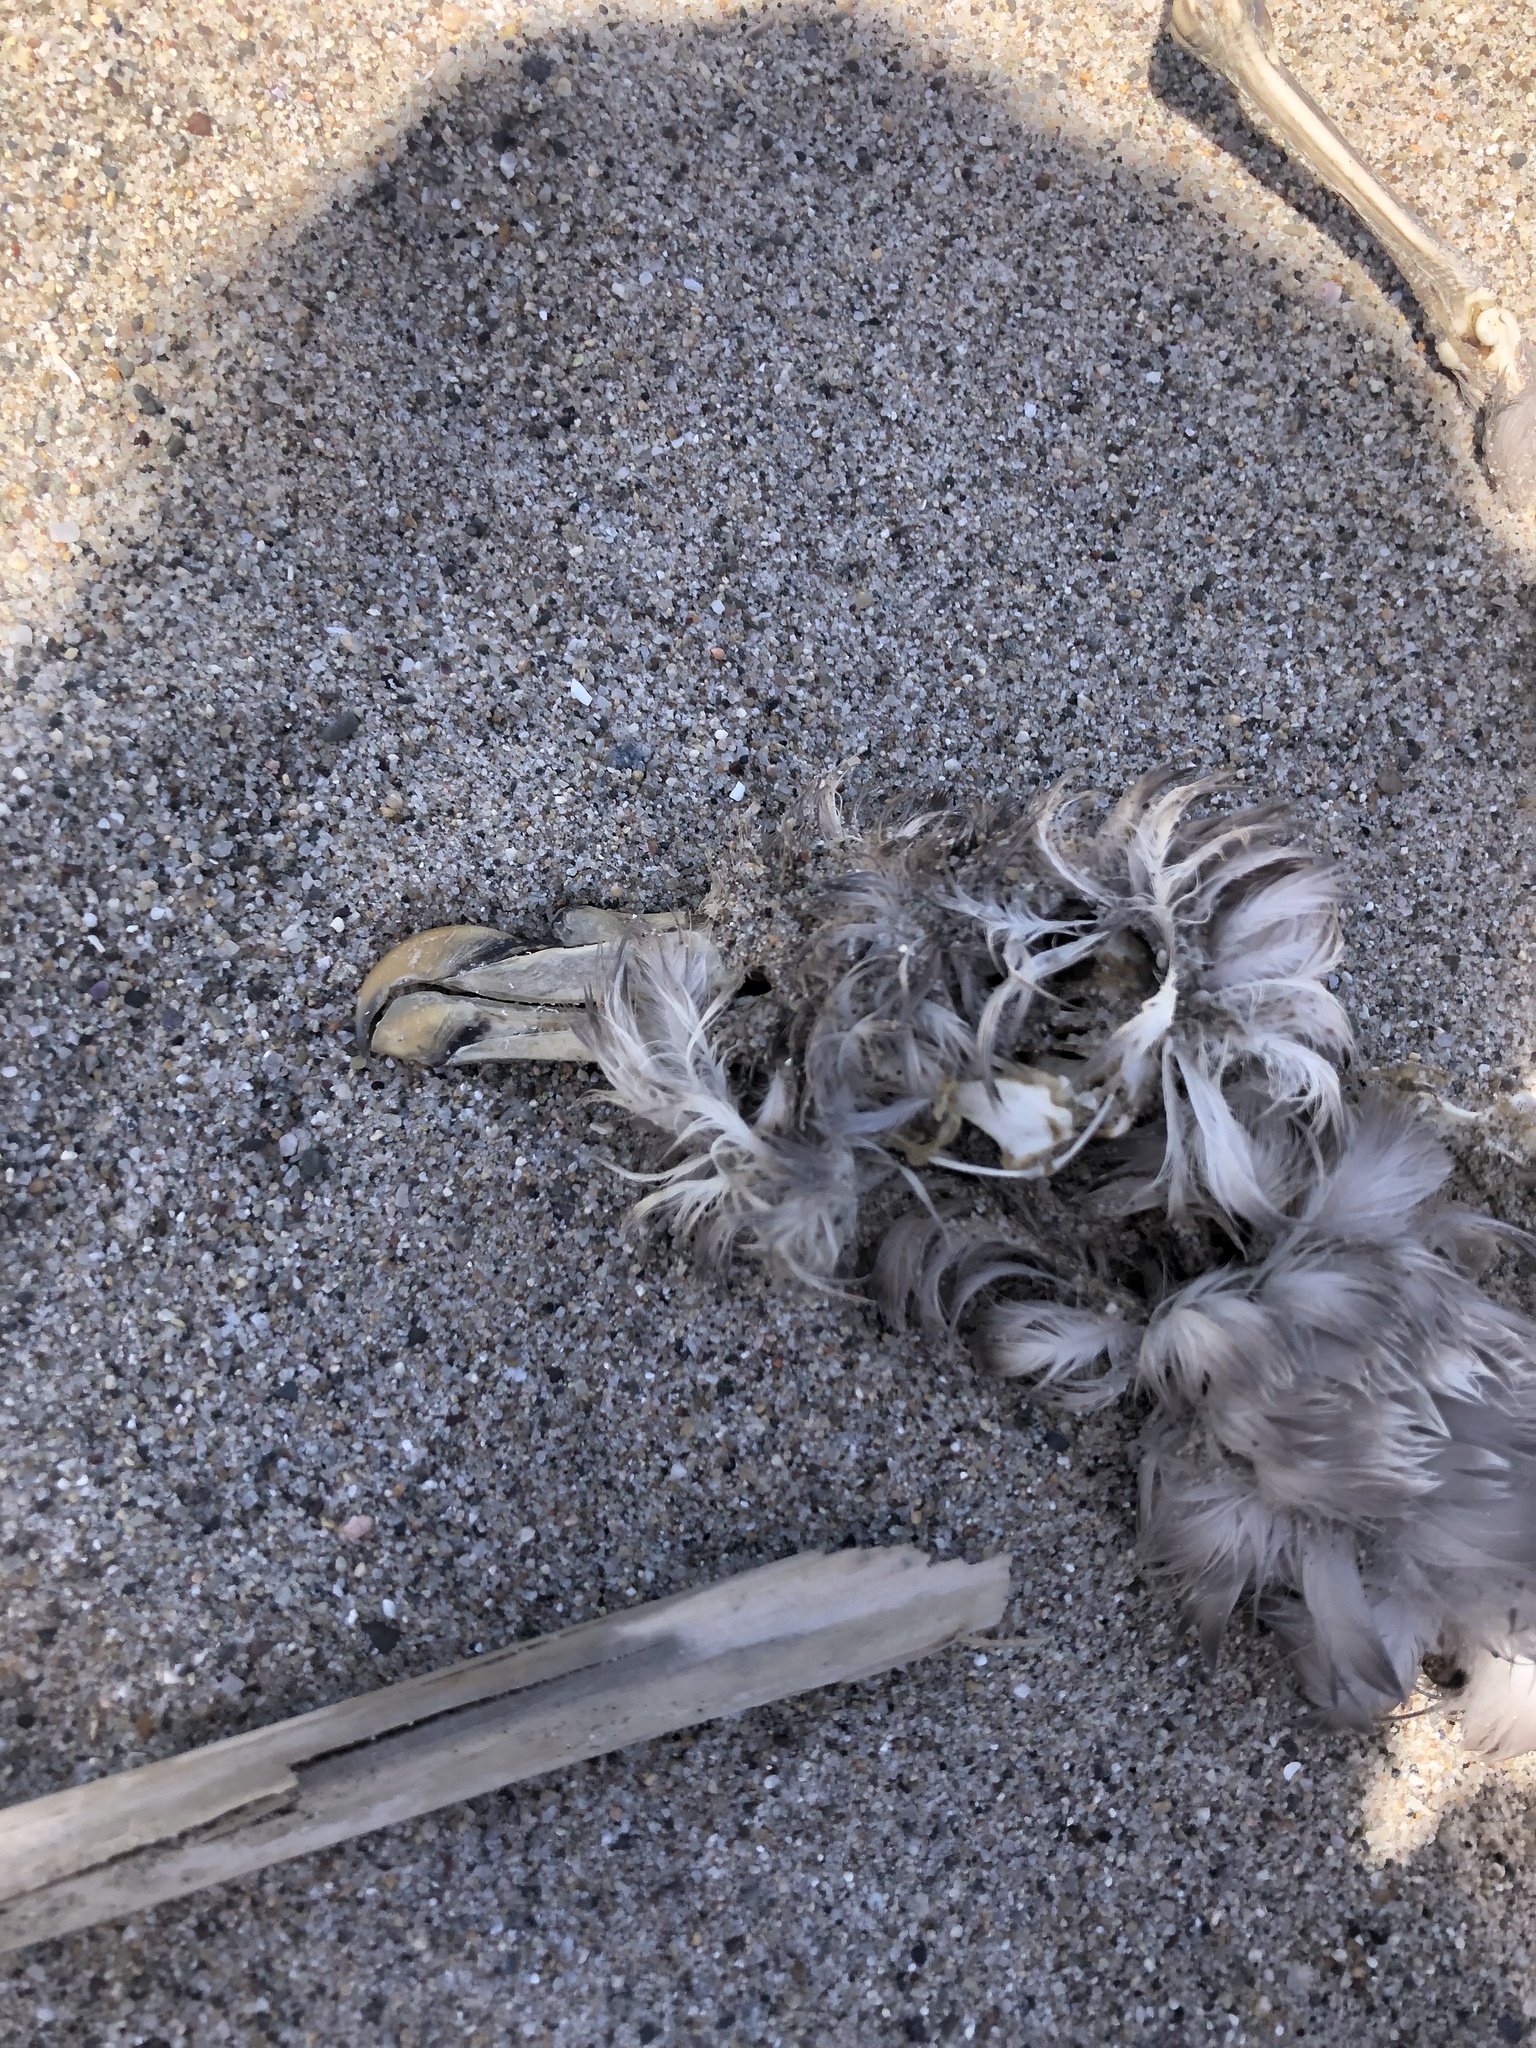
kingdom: Animalia
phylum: Chordata
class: Aves
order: Procellariiformes
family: Procellariidae
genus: Fulmarus
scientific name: Fulmarus glacialis
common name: Northern fulmar
